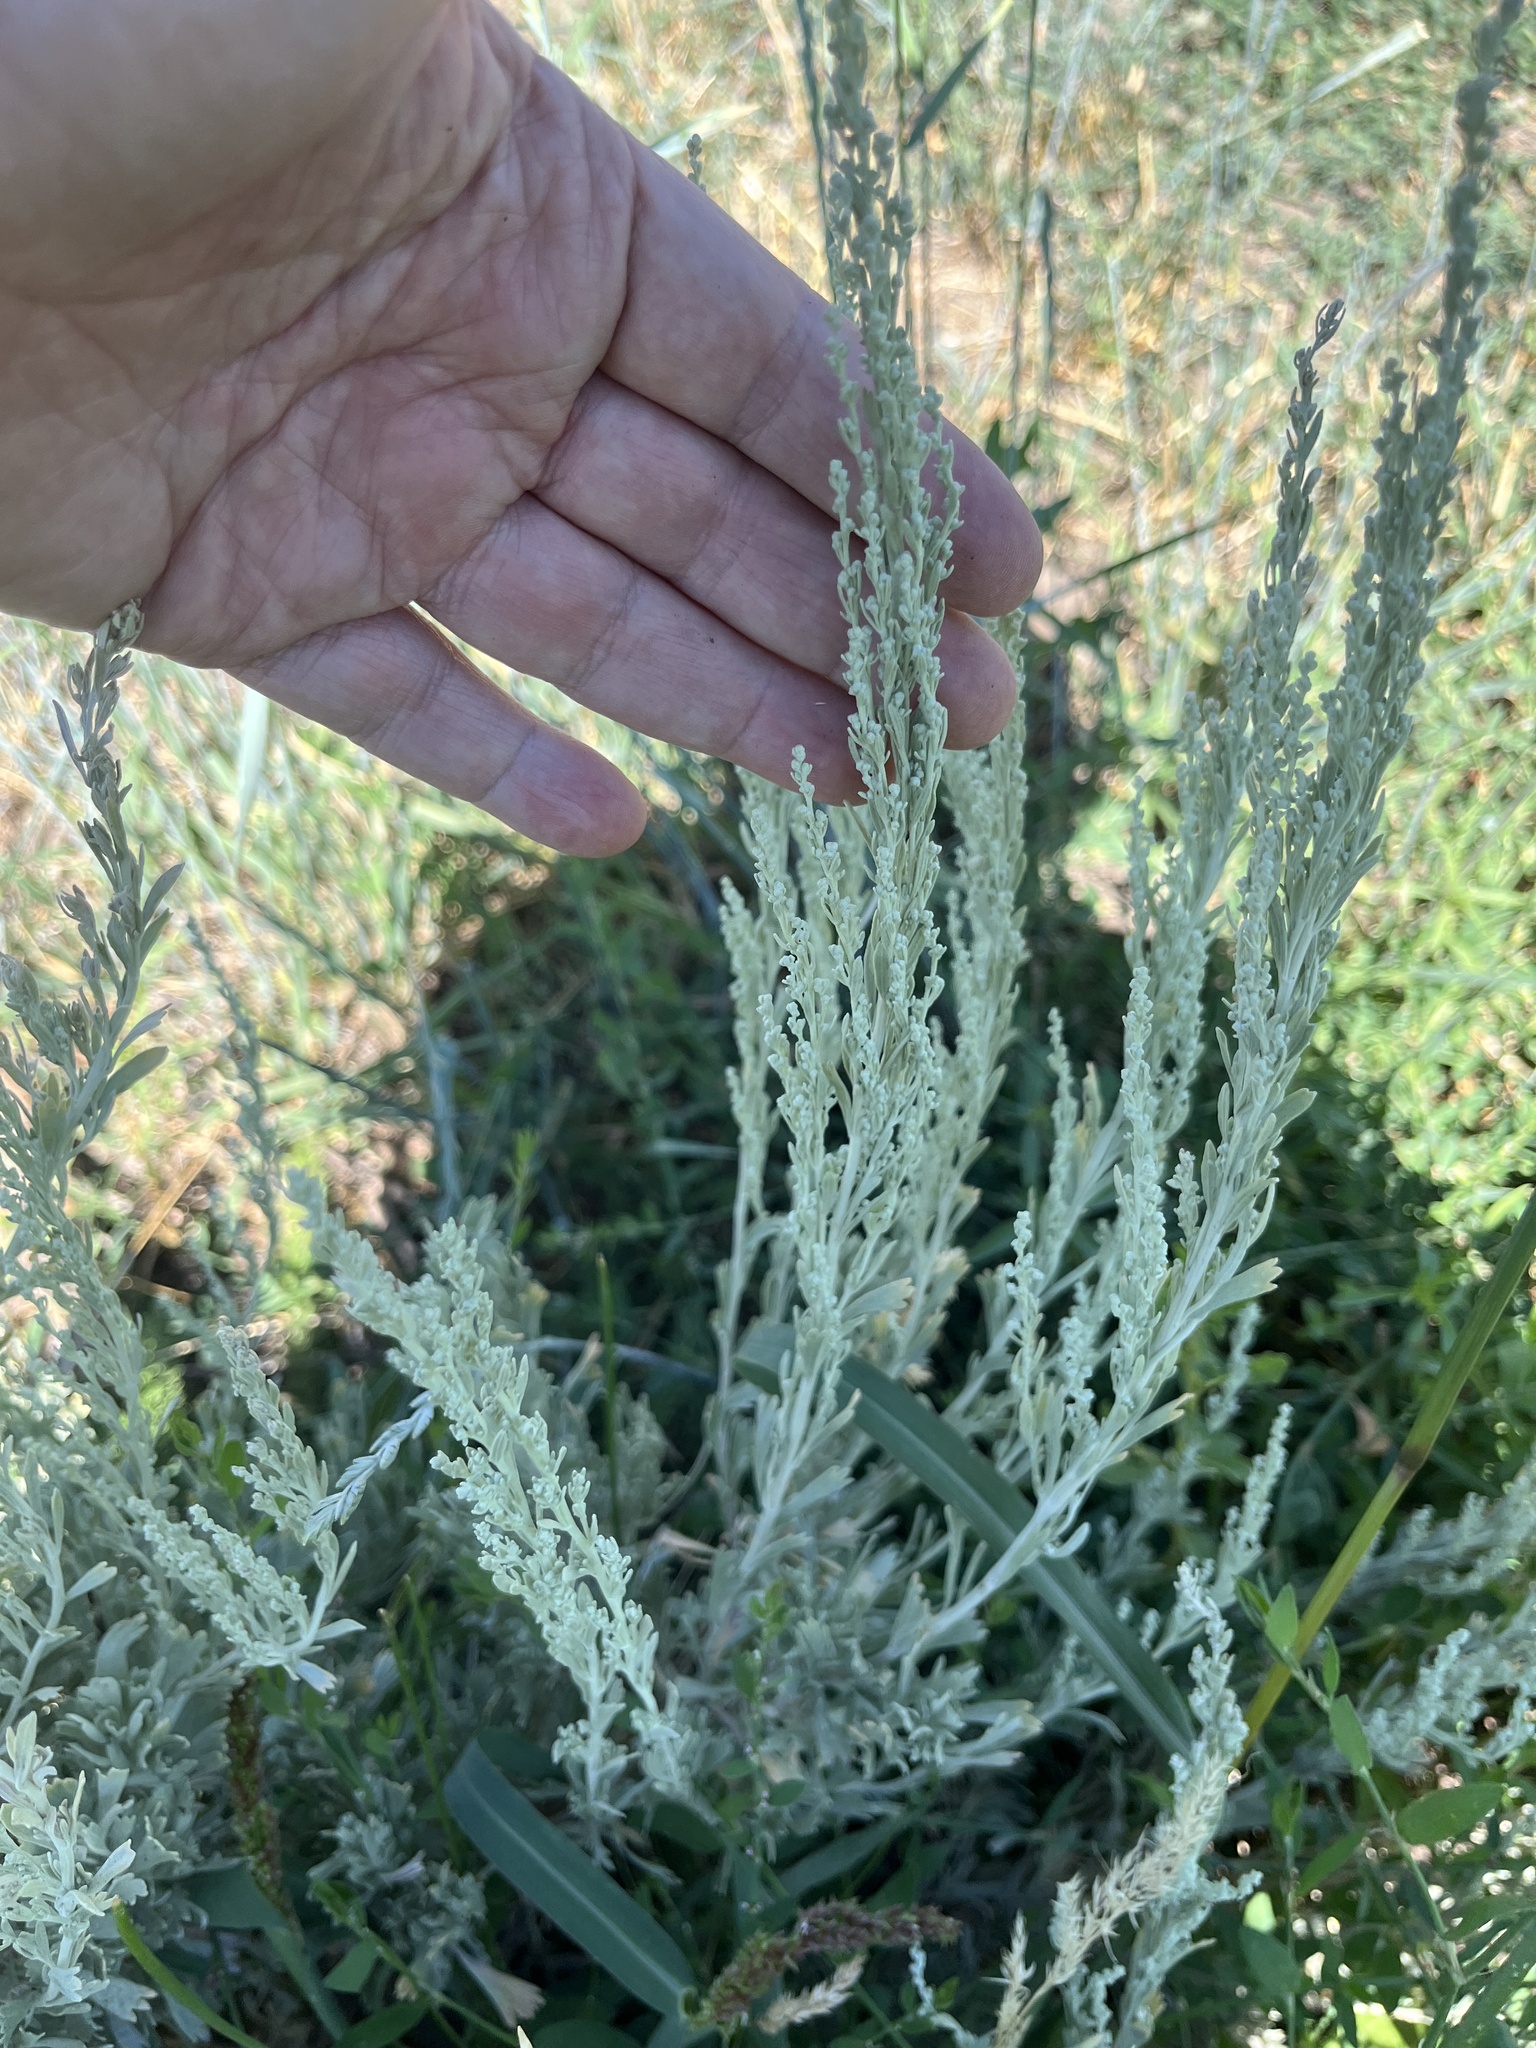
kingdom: Plantae
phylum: Tracheophyta
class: Magnoliopsida
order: Asterales
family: Asteraceae
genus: Artemisia
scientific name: Artemisia tridentata
